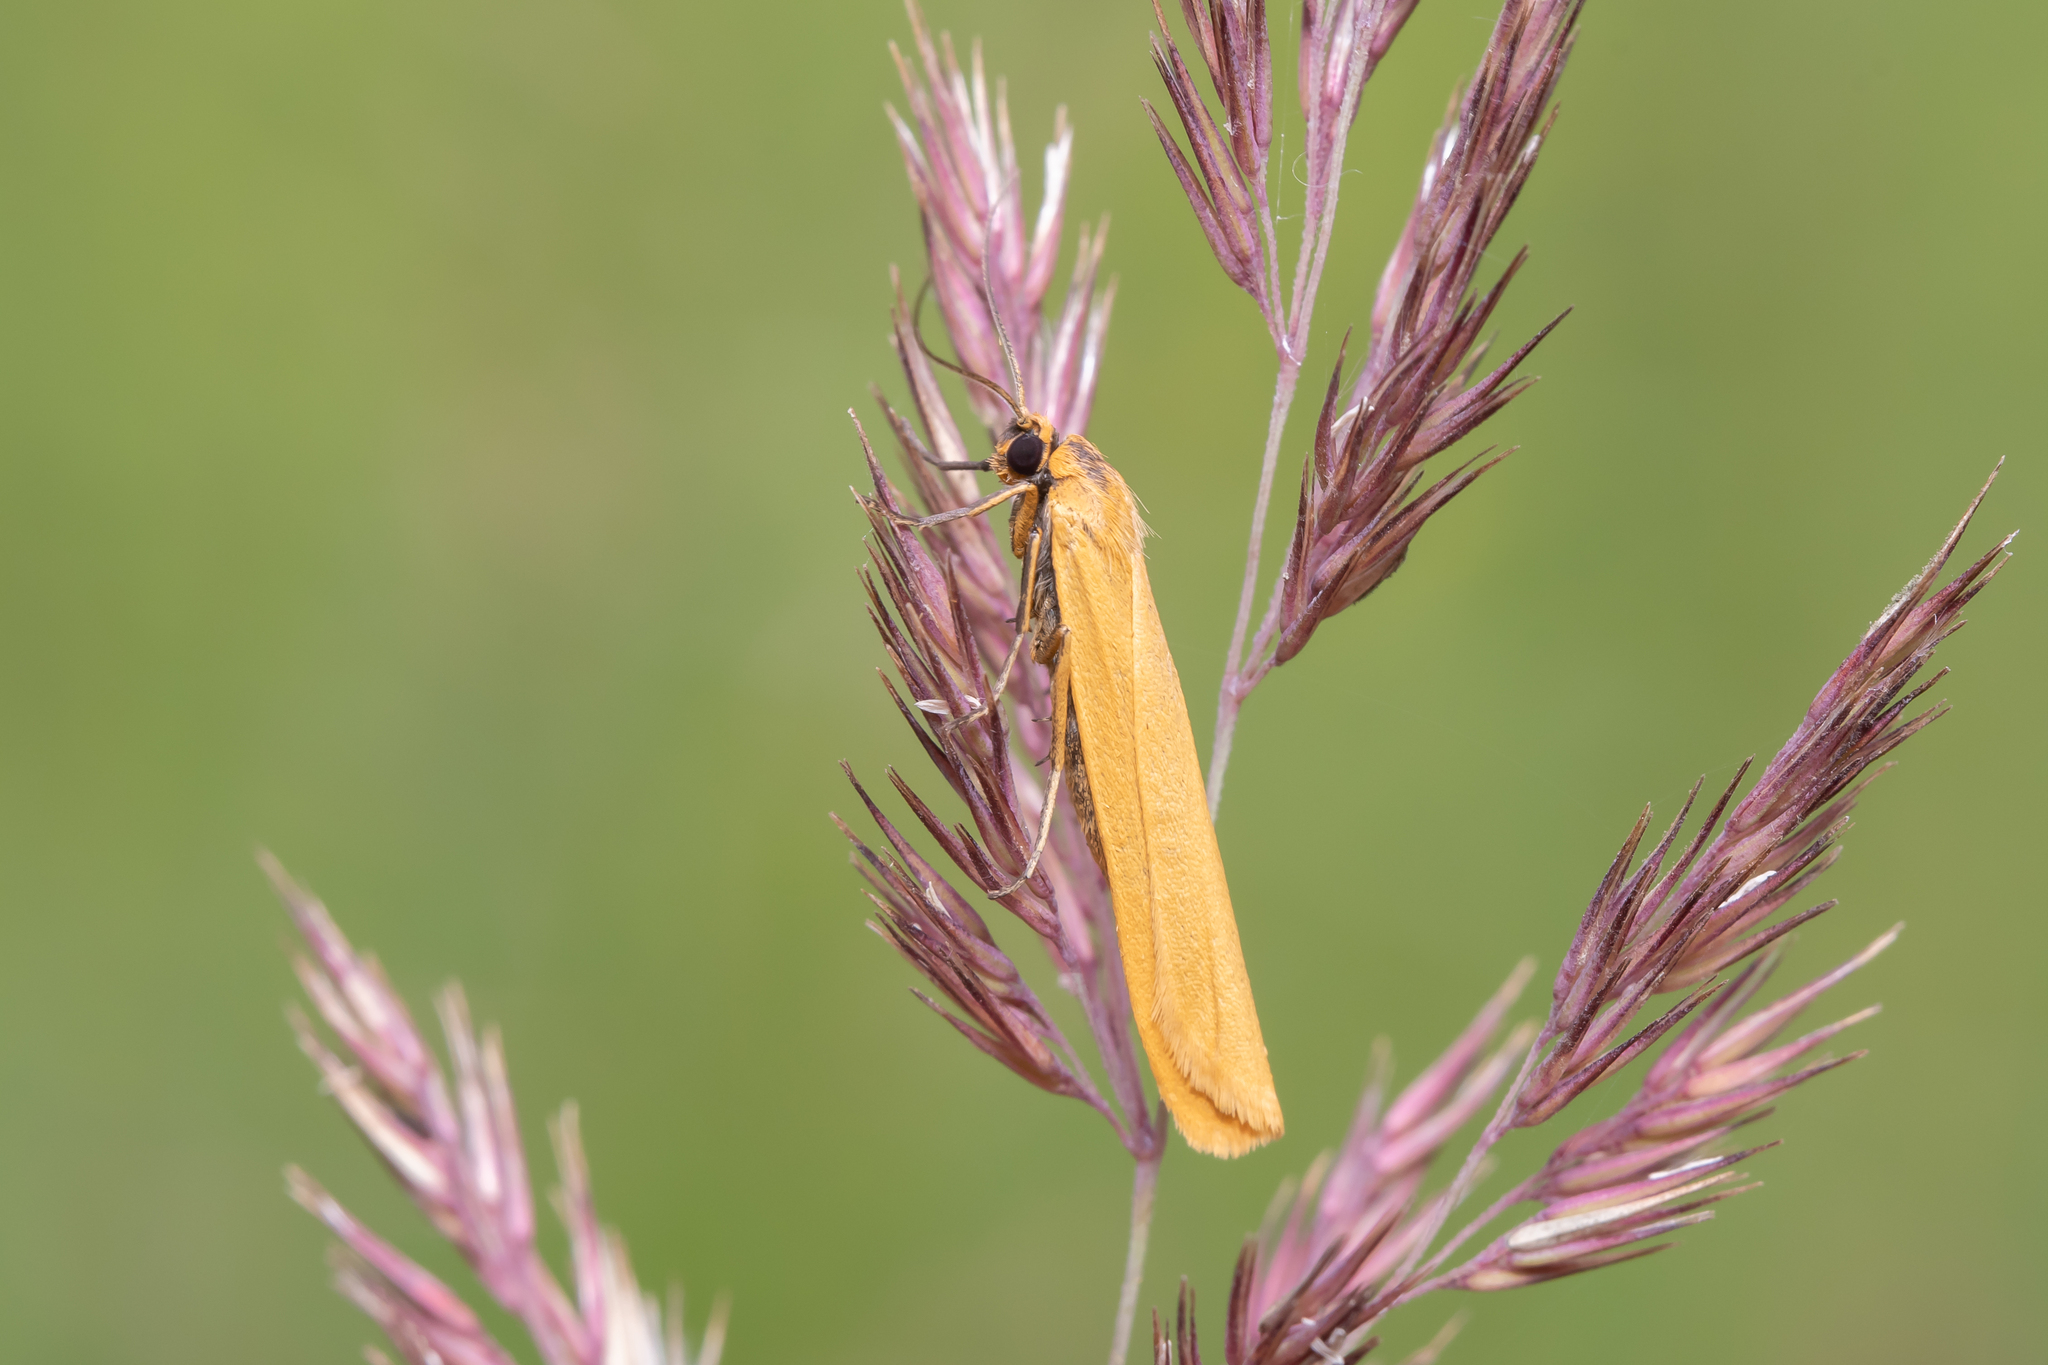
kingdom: Animalia
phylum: Arthropoda
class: Insecta
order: Lepidoptera
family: Erebidae
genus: Indalia
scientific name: Indalia lutarella
